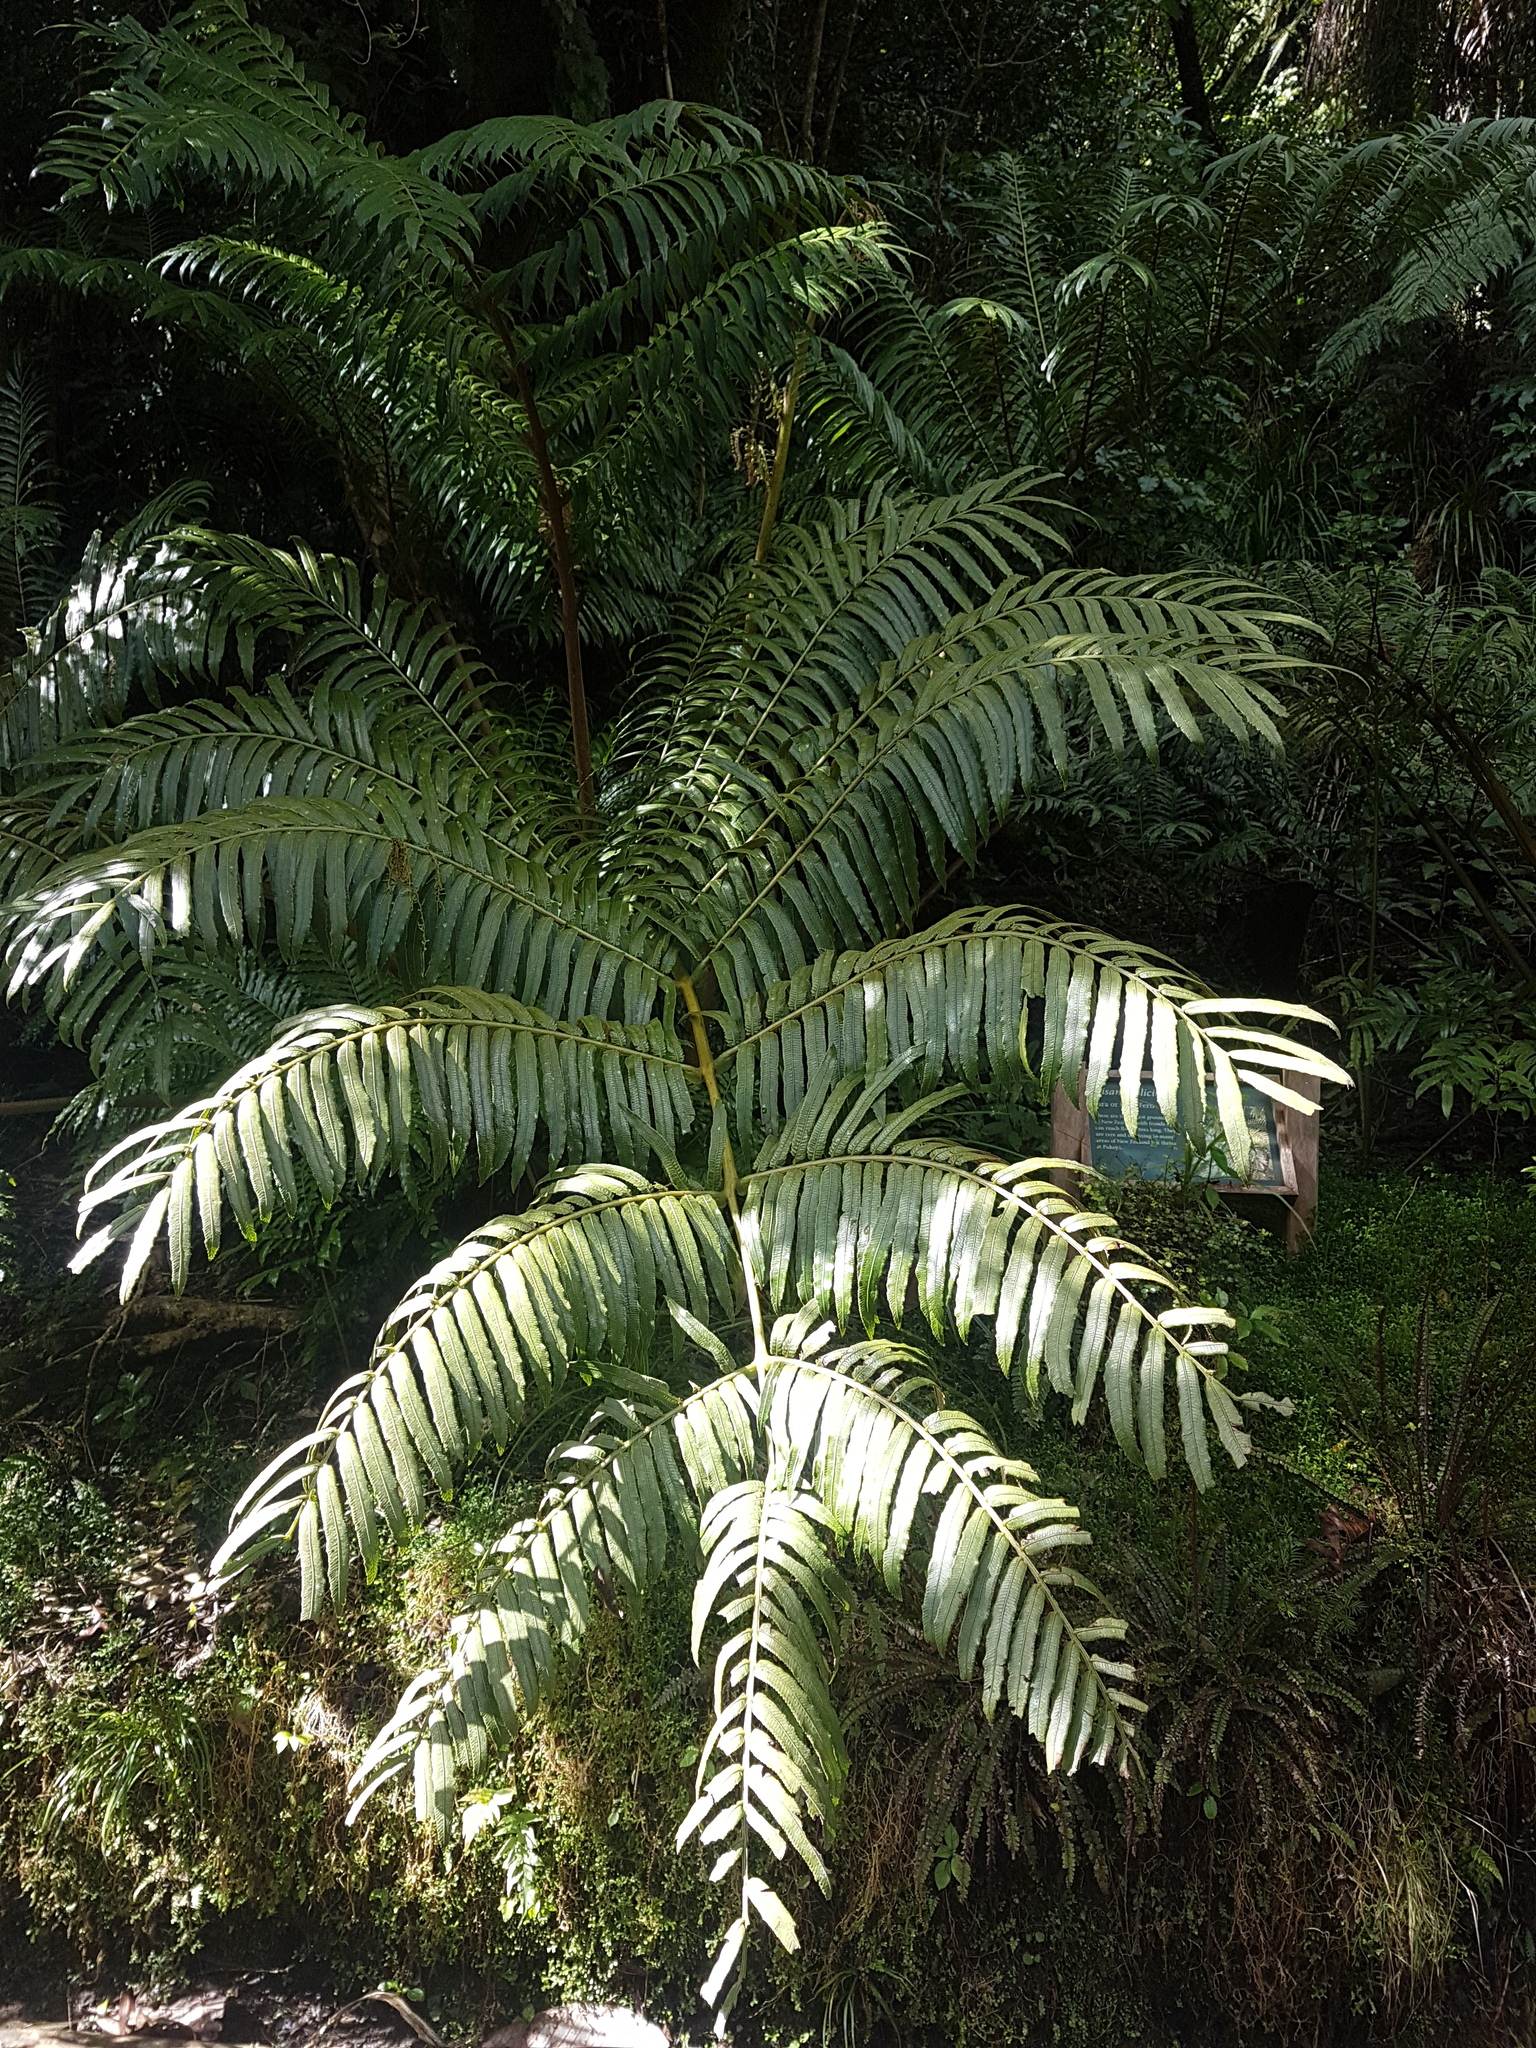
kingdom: Plantae
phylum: Tracheophyta
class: Polypodiopsida
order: Marattiales
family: Marattiaceae
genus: Ptisana
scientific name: Ptisana salicina
